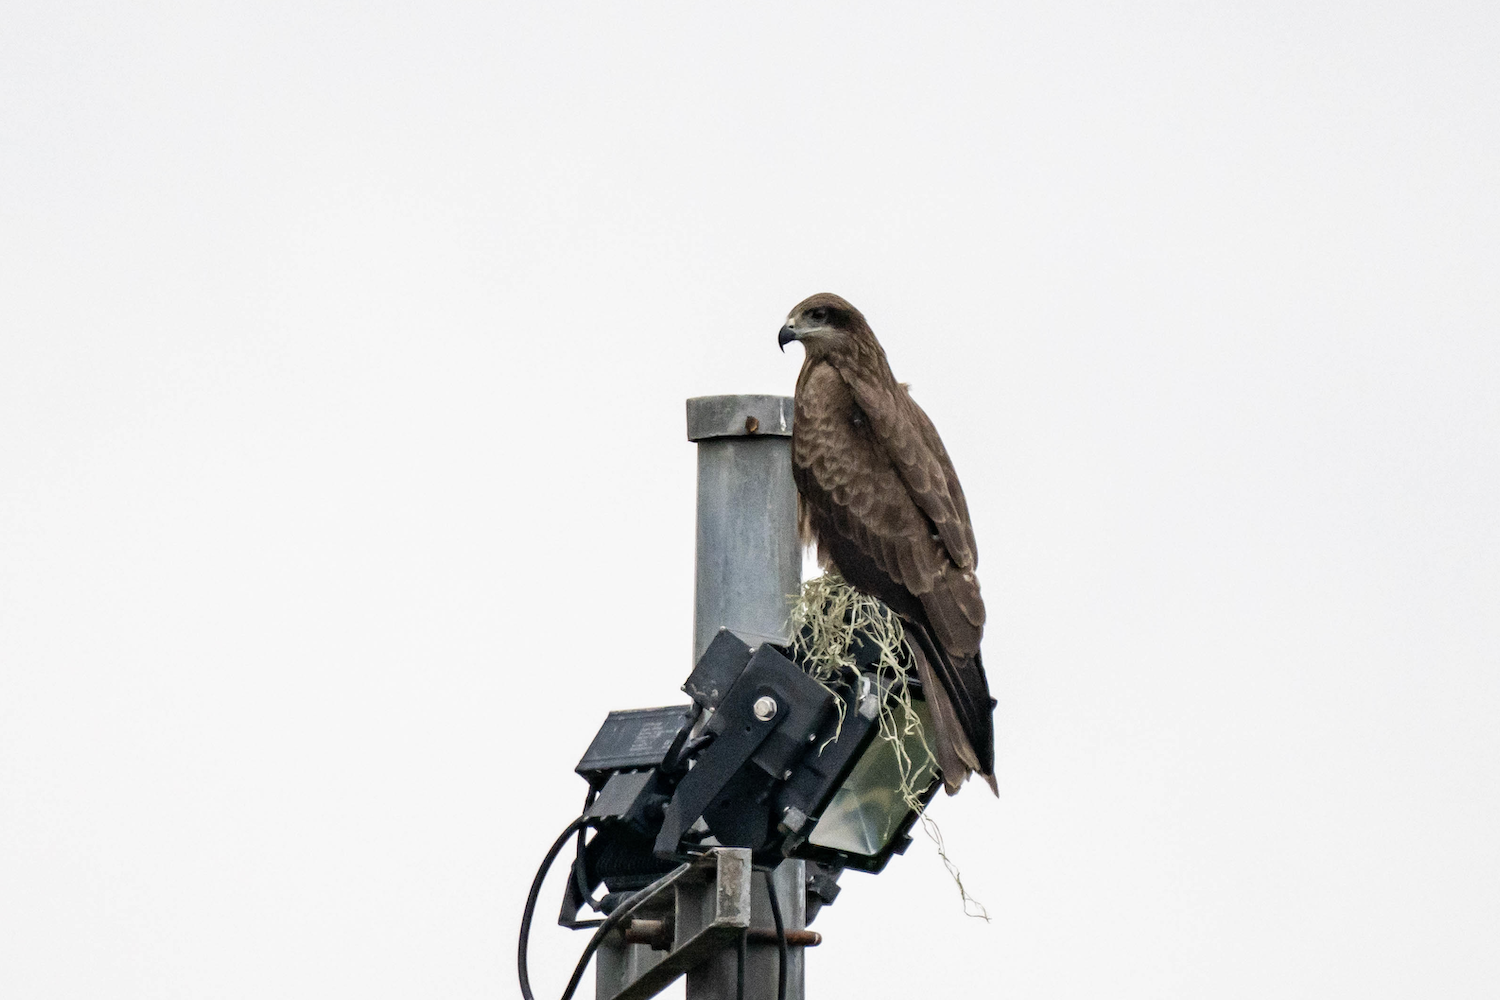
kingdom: Animalia
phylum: Chordata
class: Aves
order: Accipitriformes
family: Accipitridae
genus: Milvus
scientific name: Milvus migrans
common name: Black kite
